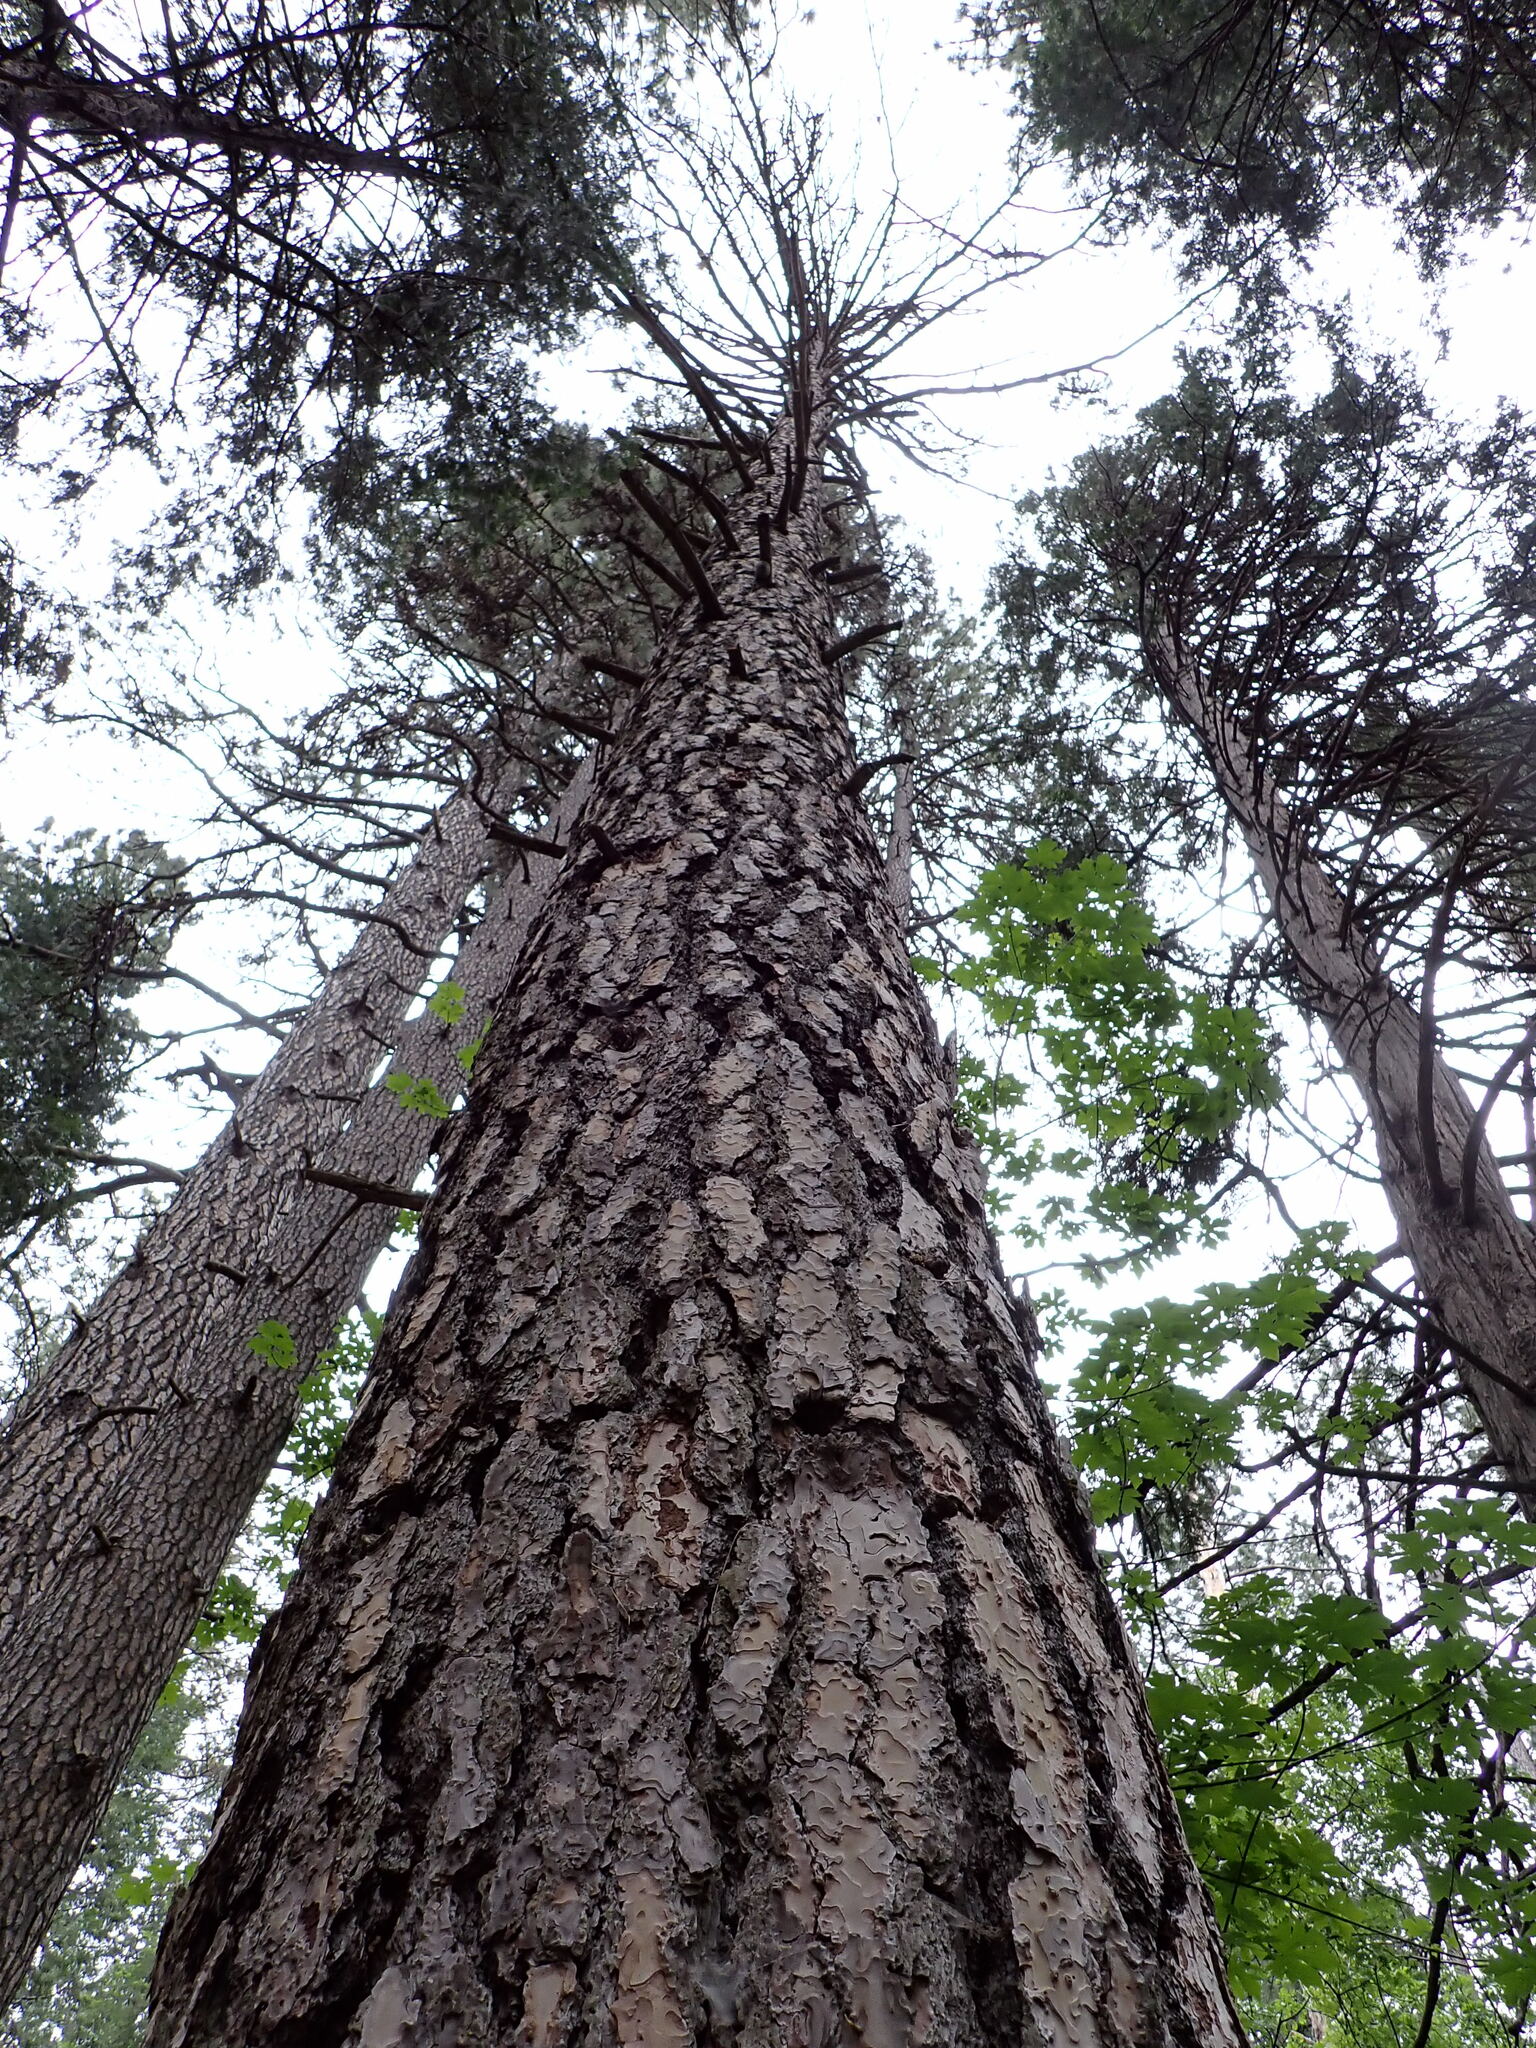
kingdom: Fungi
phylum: Basidiomycota
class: Agaricomycetes
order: Polyporales
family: Polyporaceae
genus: Cryptoporus
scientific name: Cryptoporus volvatus
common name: Veiled polypore
